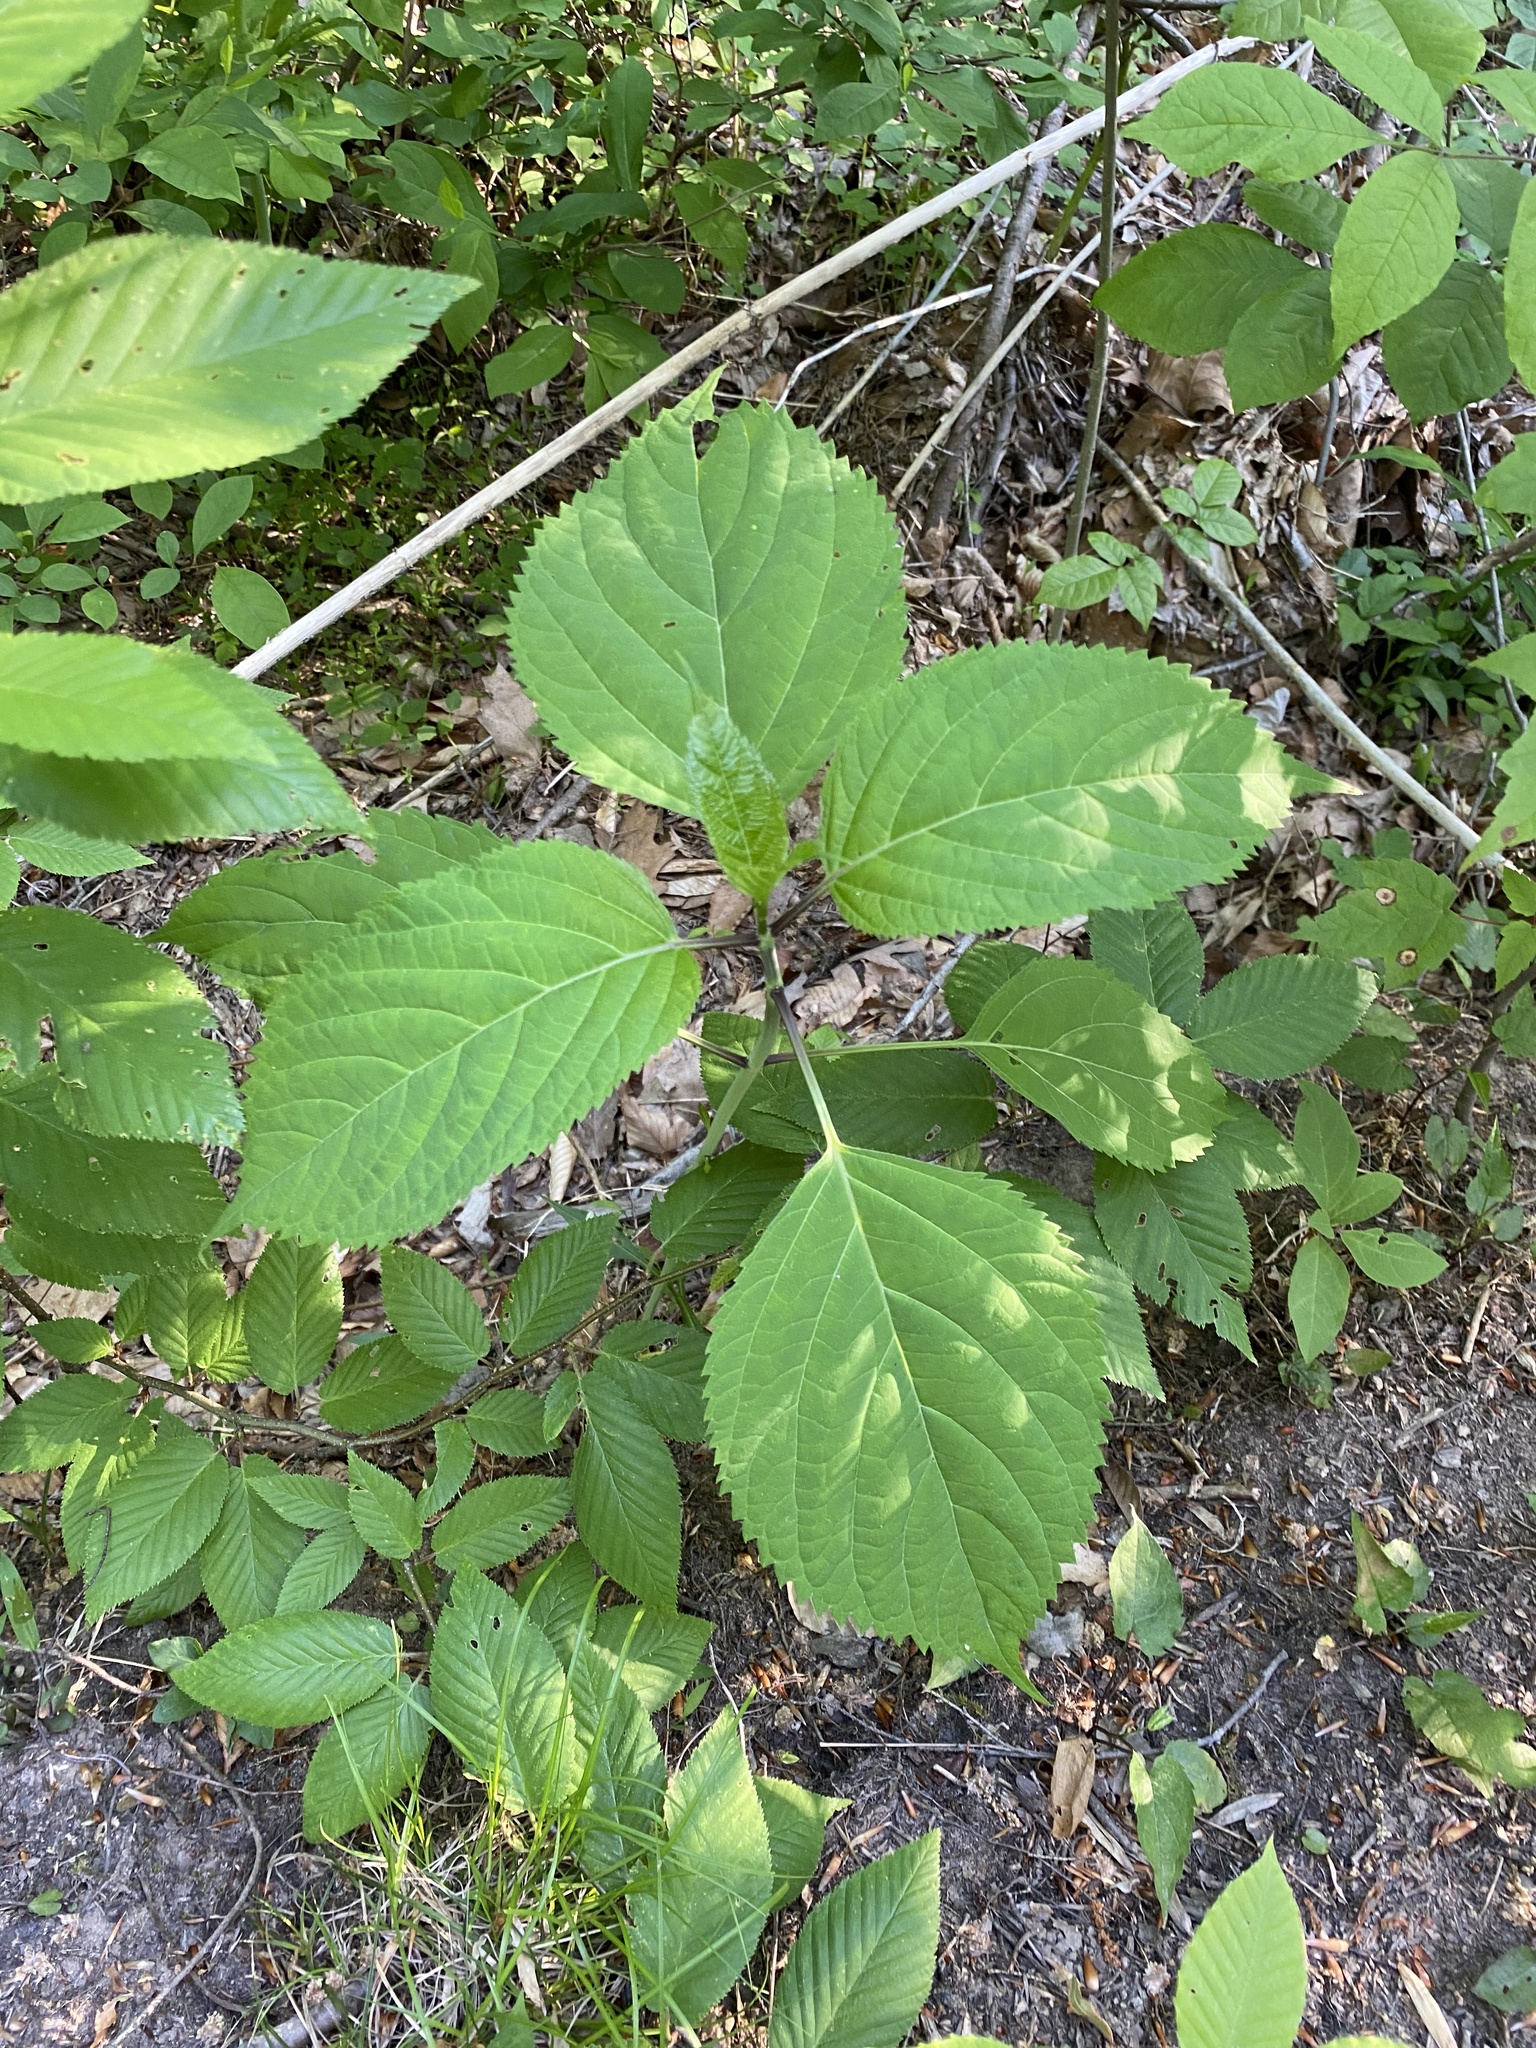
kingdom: Plantae
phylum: Tracheophyta
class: Magnoliopsida
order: Lamiales
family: Lamiaceae
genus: Collinsonia
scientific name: Collinsonia canadensis
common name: Northern horsebalm
